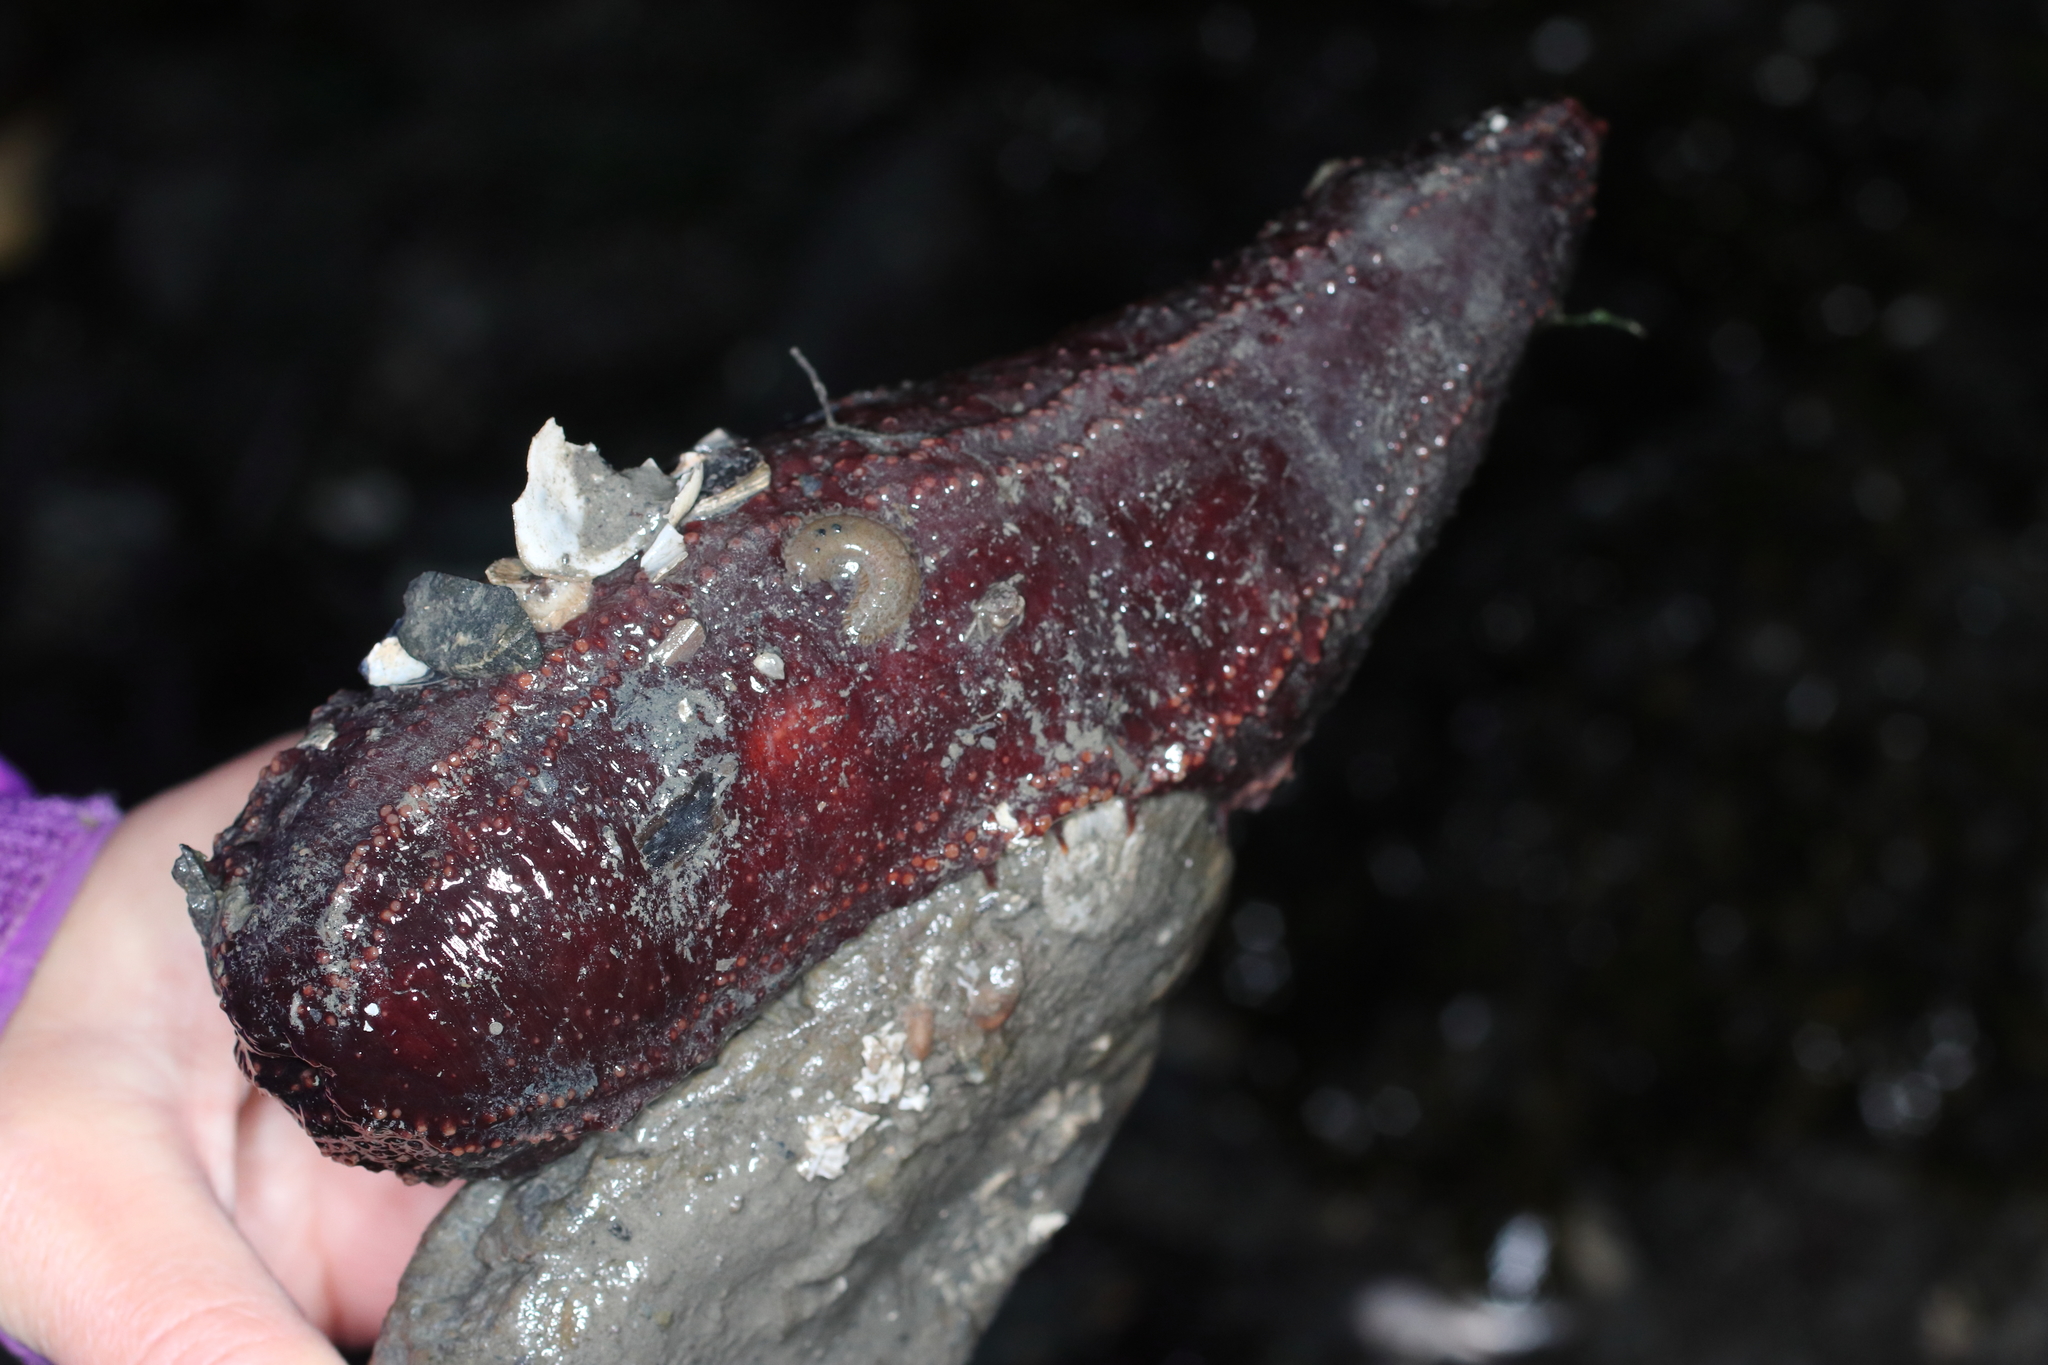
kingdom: Animalia
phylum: Echinodermata
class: Holothuroidea
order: Dendrochirotida
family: Cucumariidae
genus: Cucumaria
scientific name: Cucumaria miniata
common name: Orange sea cucumber
